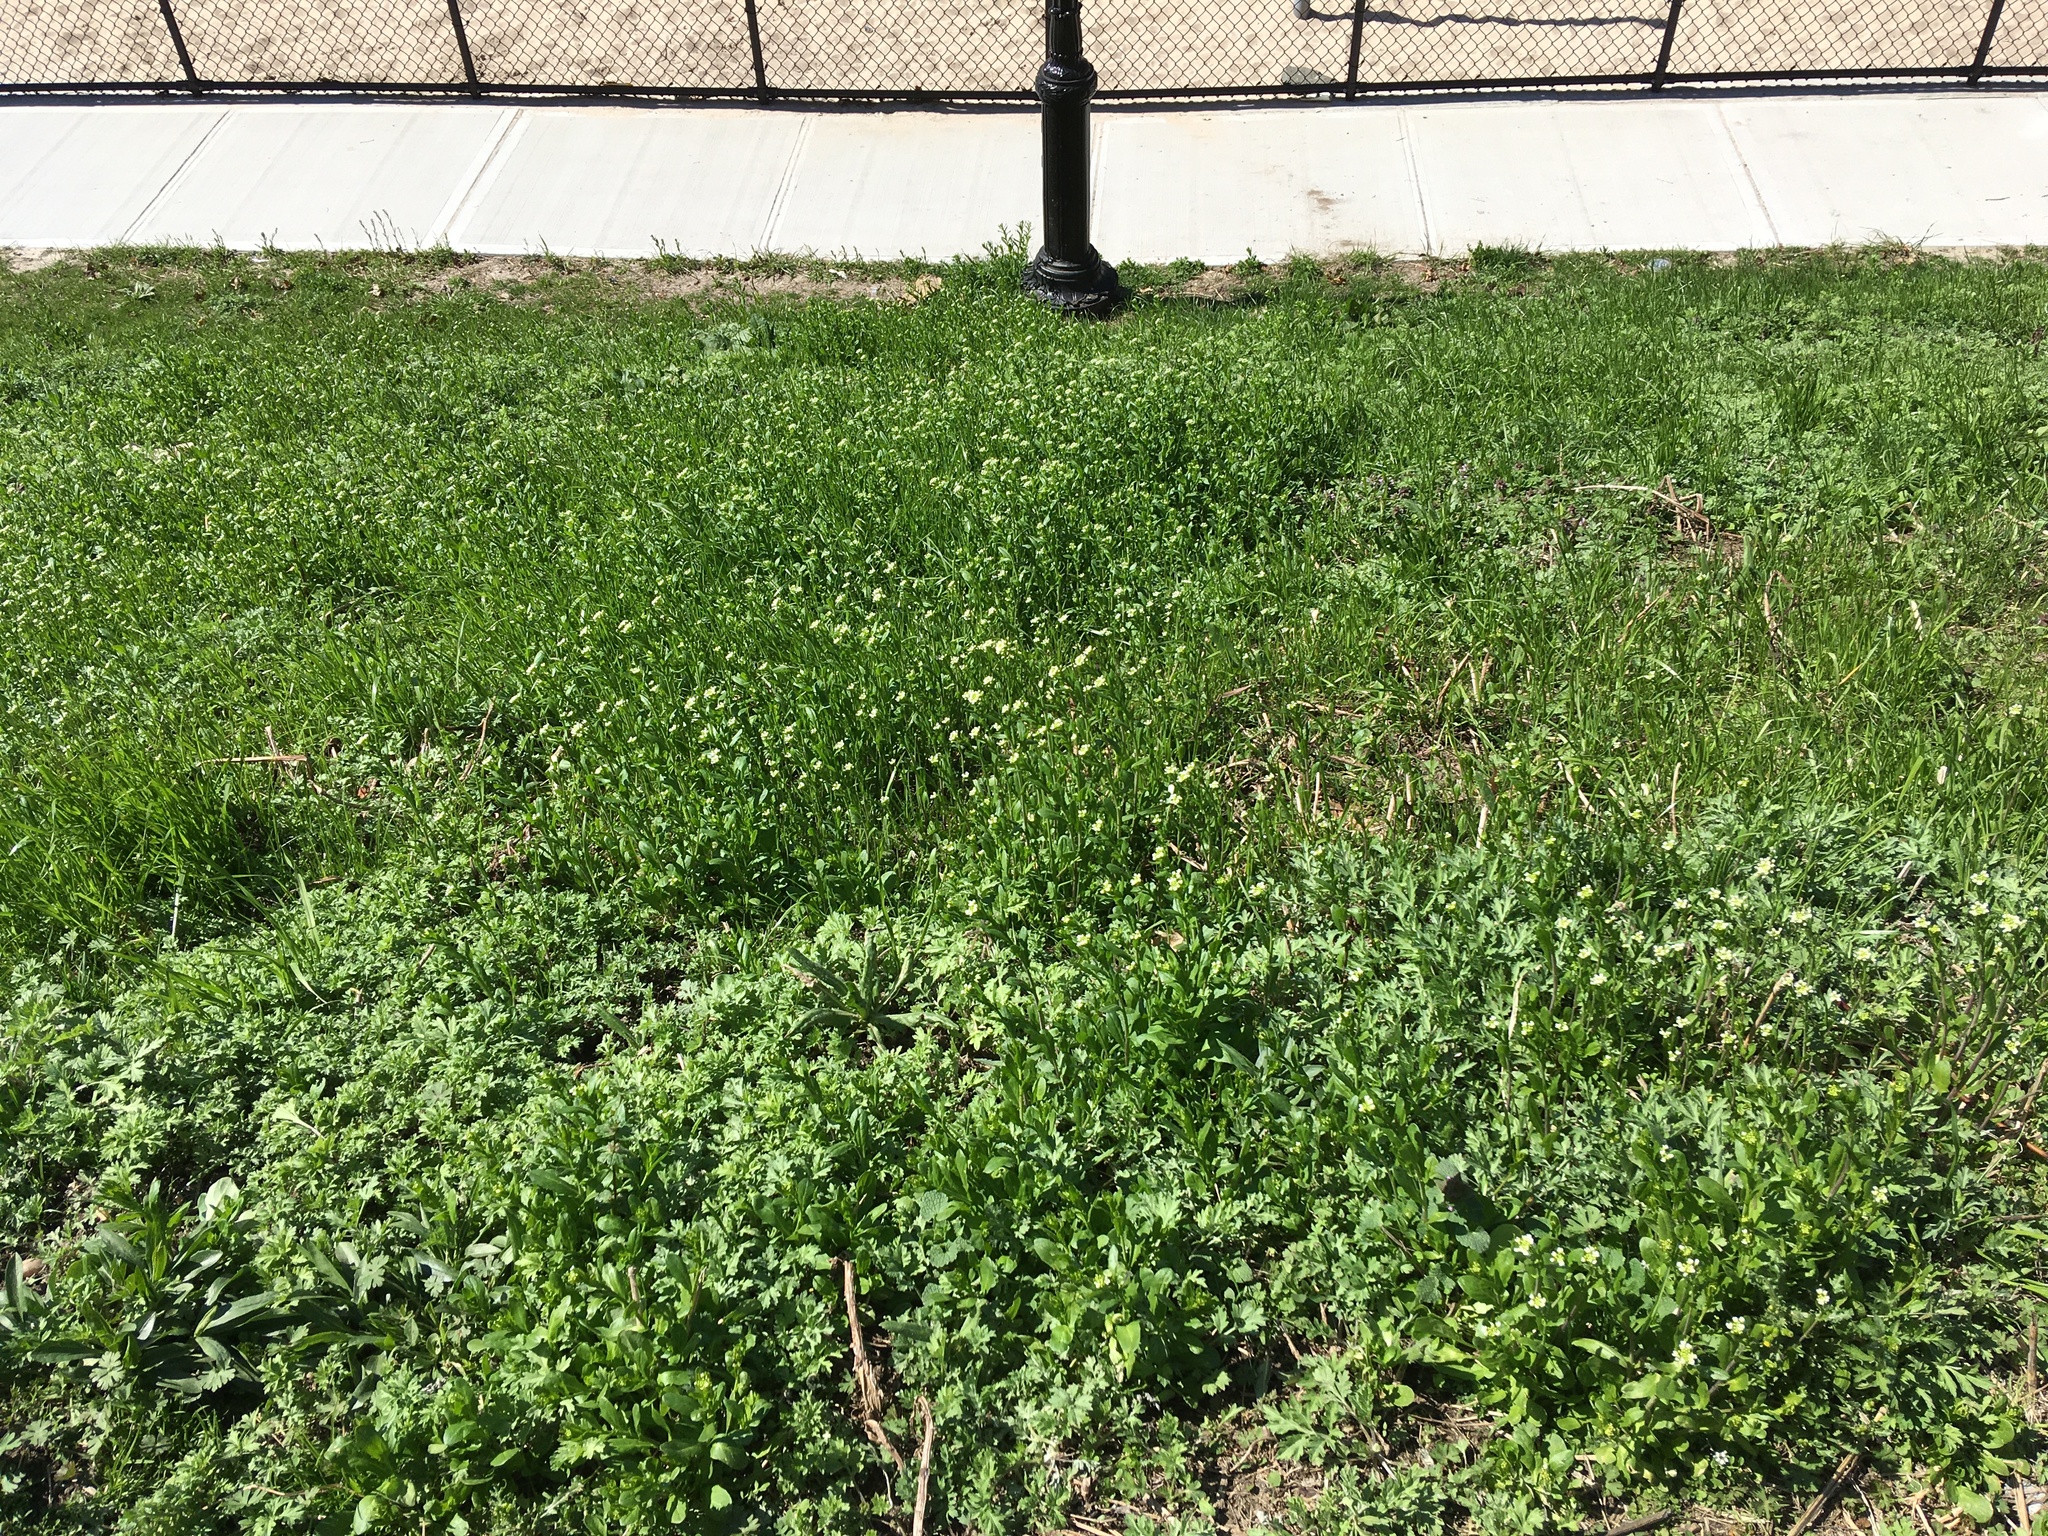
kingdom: Plantae
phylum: Tracheophyta
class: Magnoliopsida
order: Brassicales
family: Brassicaceae
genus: Mummenhoffia
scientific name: Mummenhoffia alliacea
